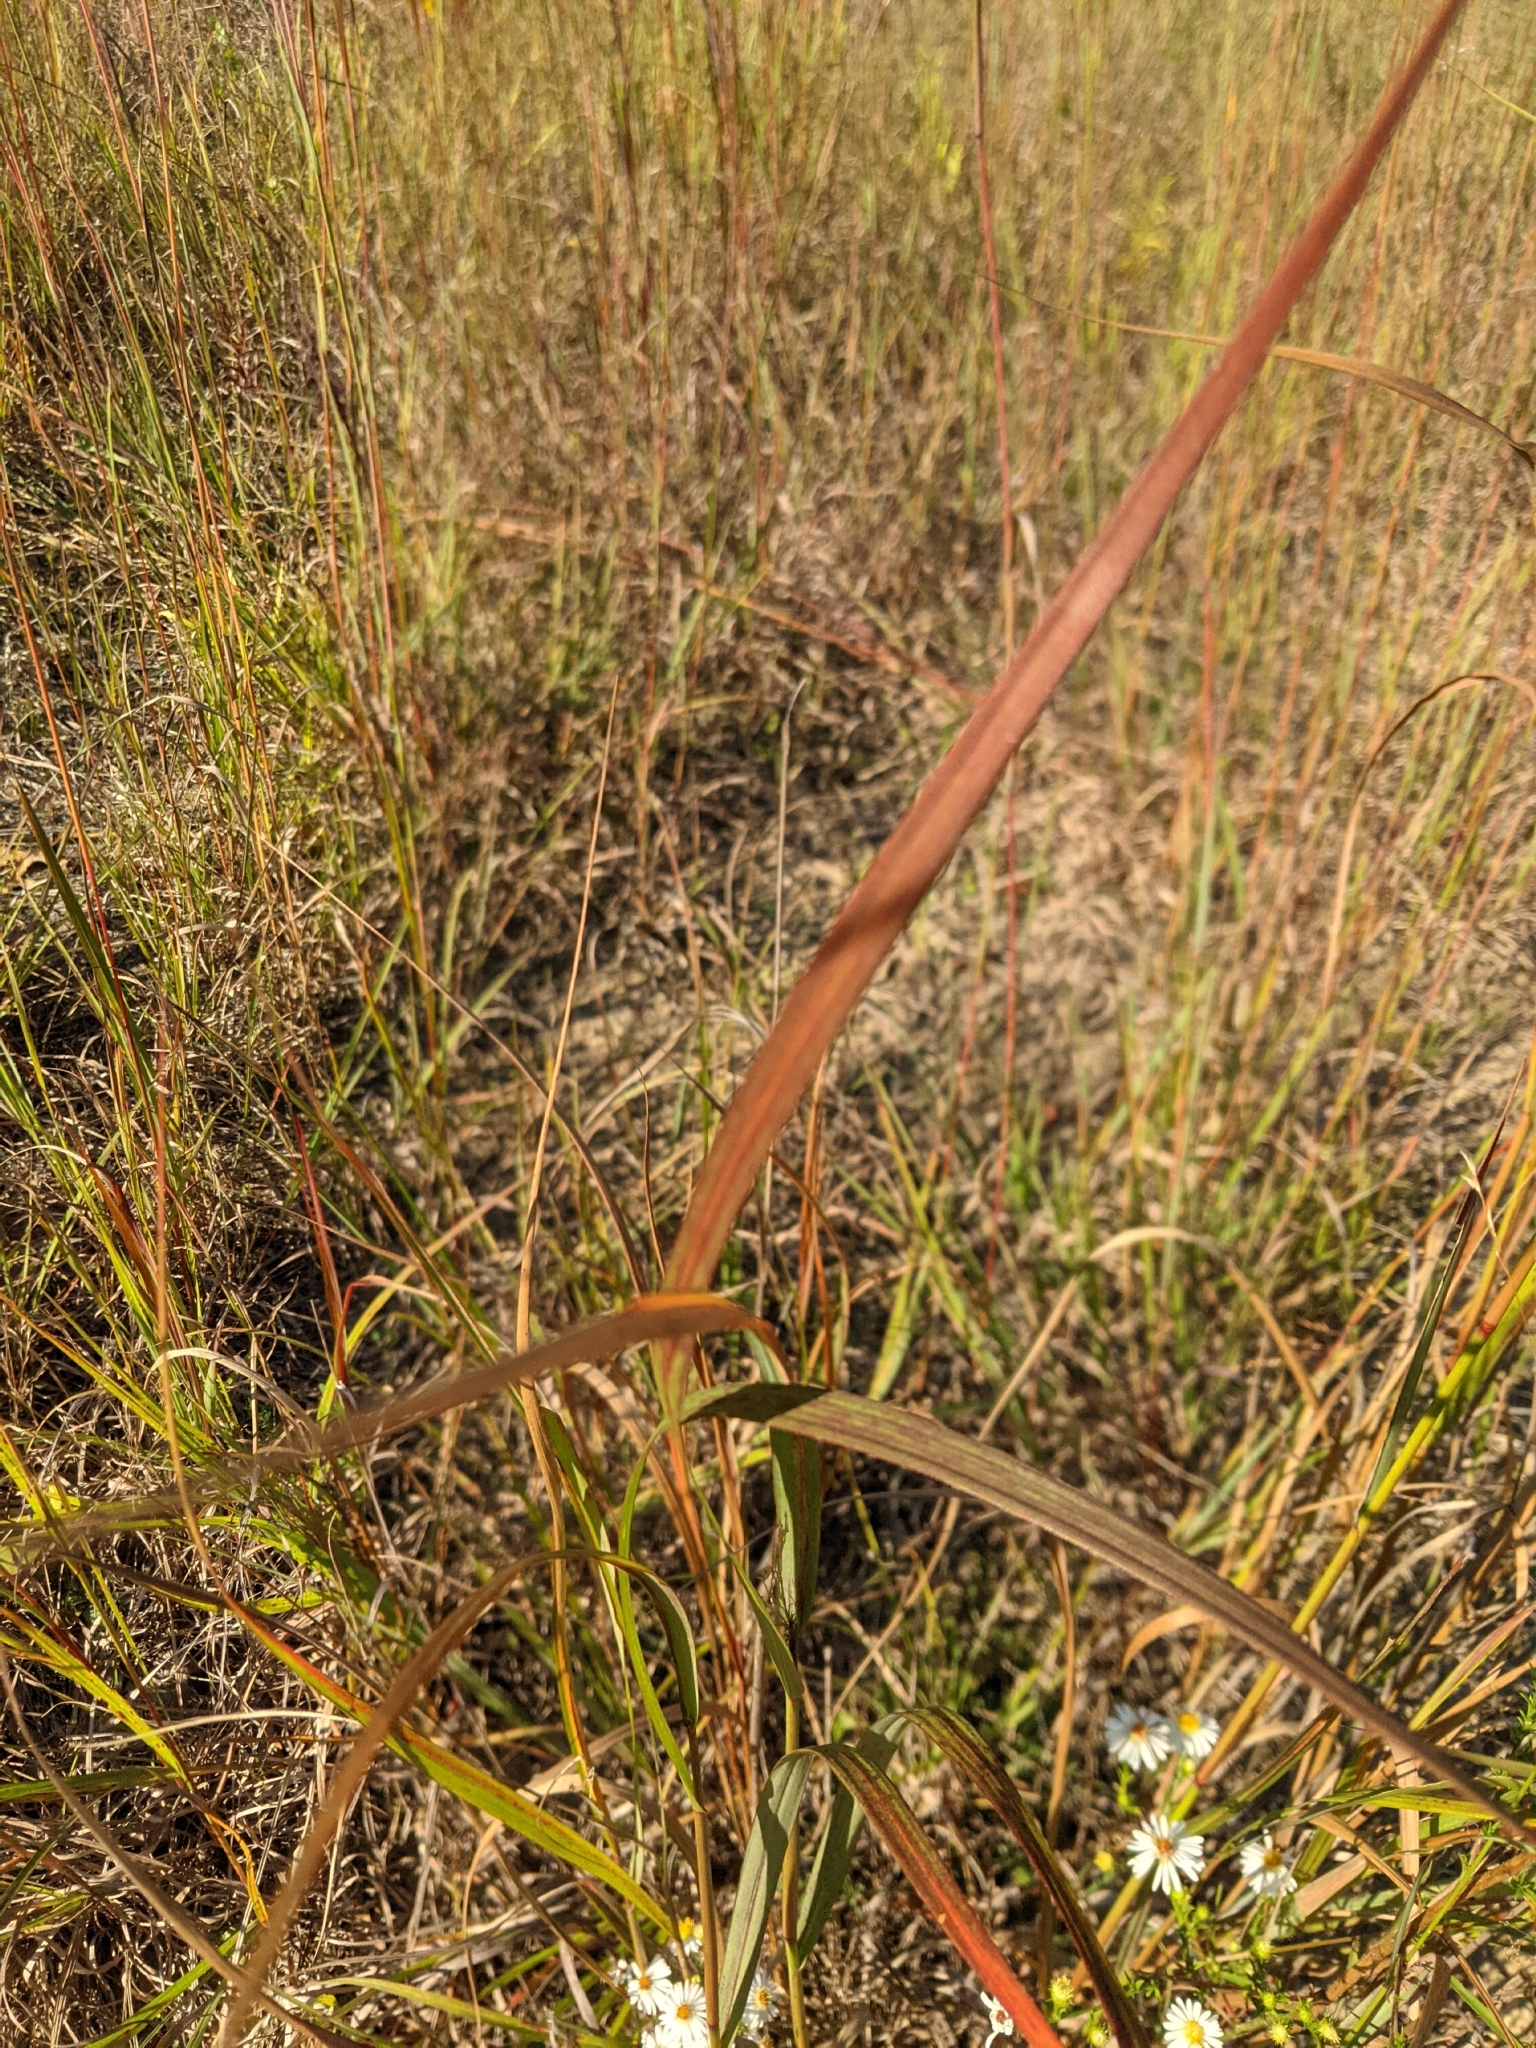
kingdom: Plantae
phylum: Tracheophyta
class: Liliopsida
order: Poales
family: Poaceae
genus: Panicum
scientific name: Panicum virgatum
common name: Switchgrass
